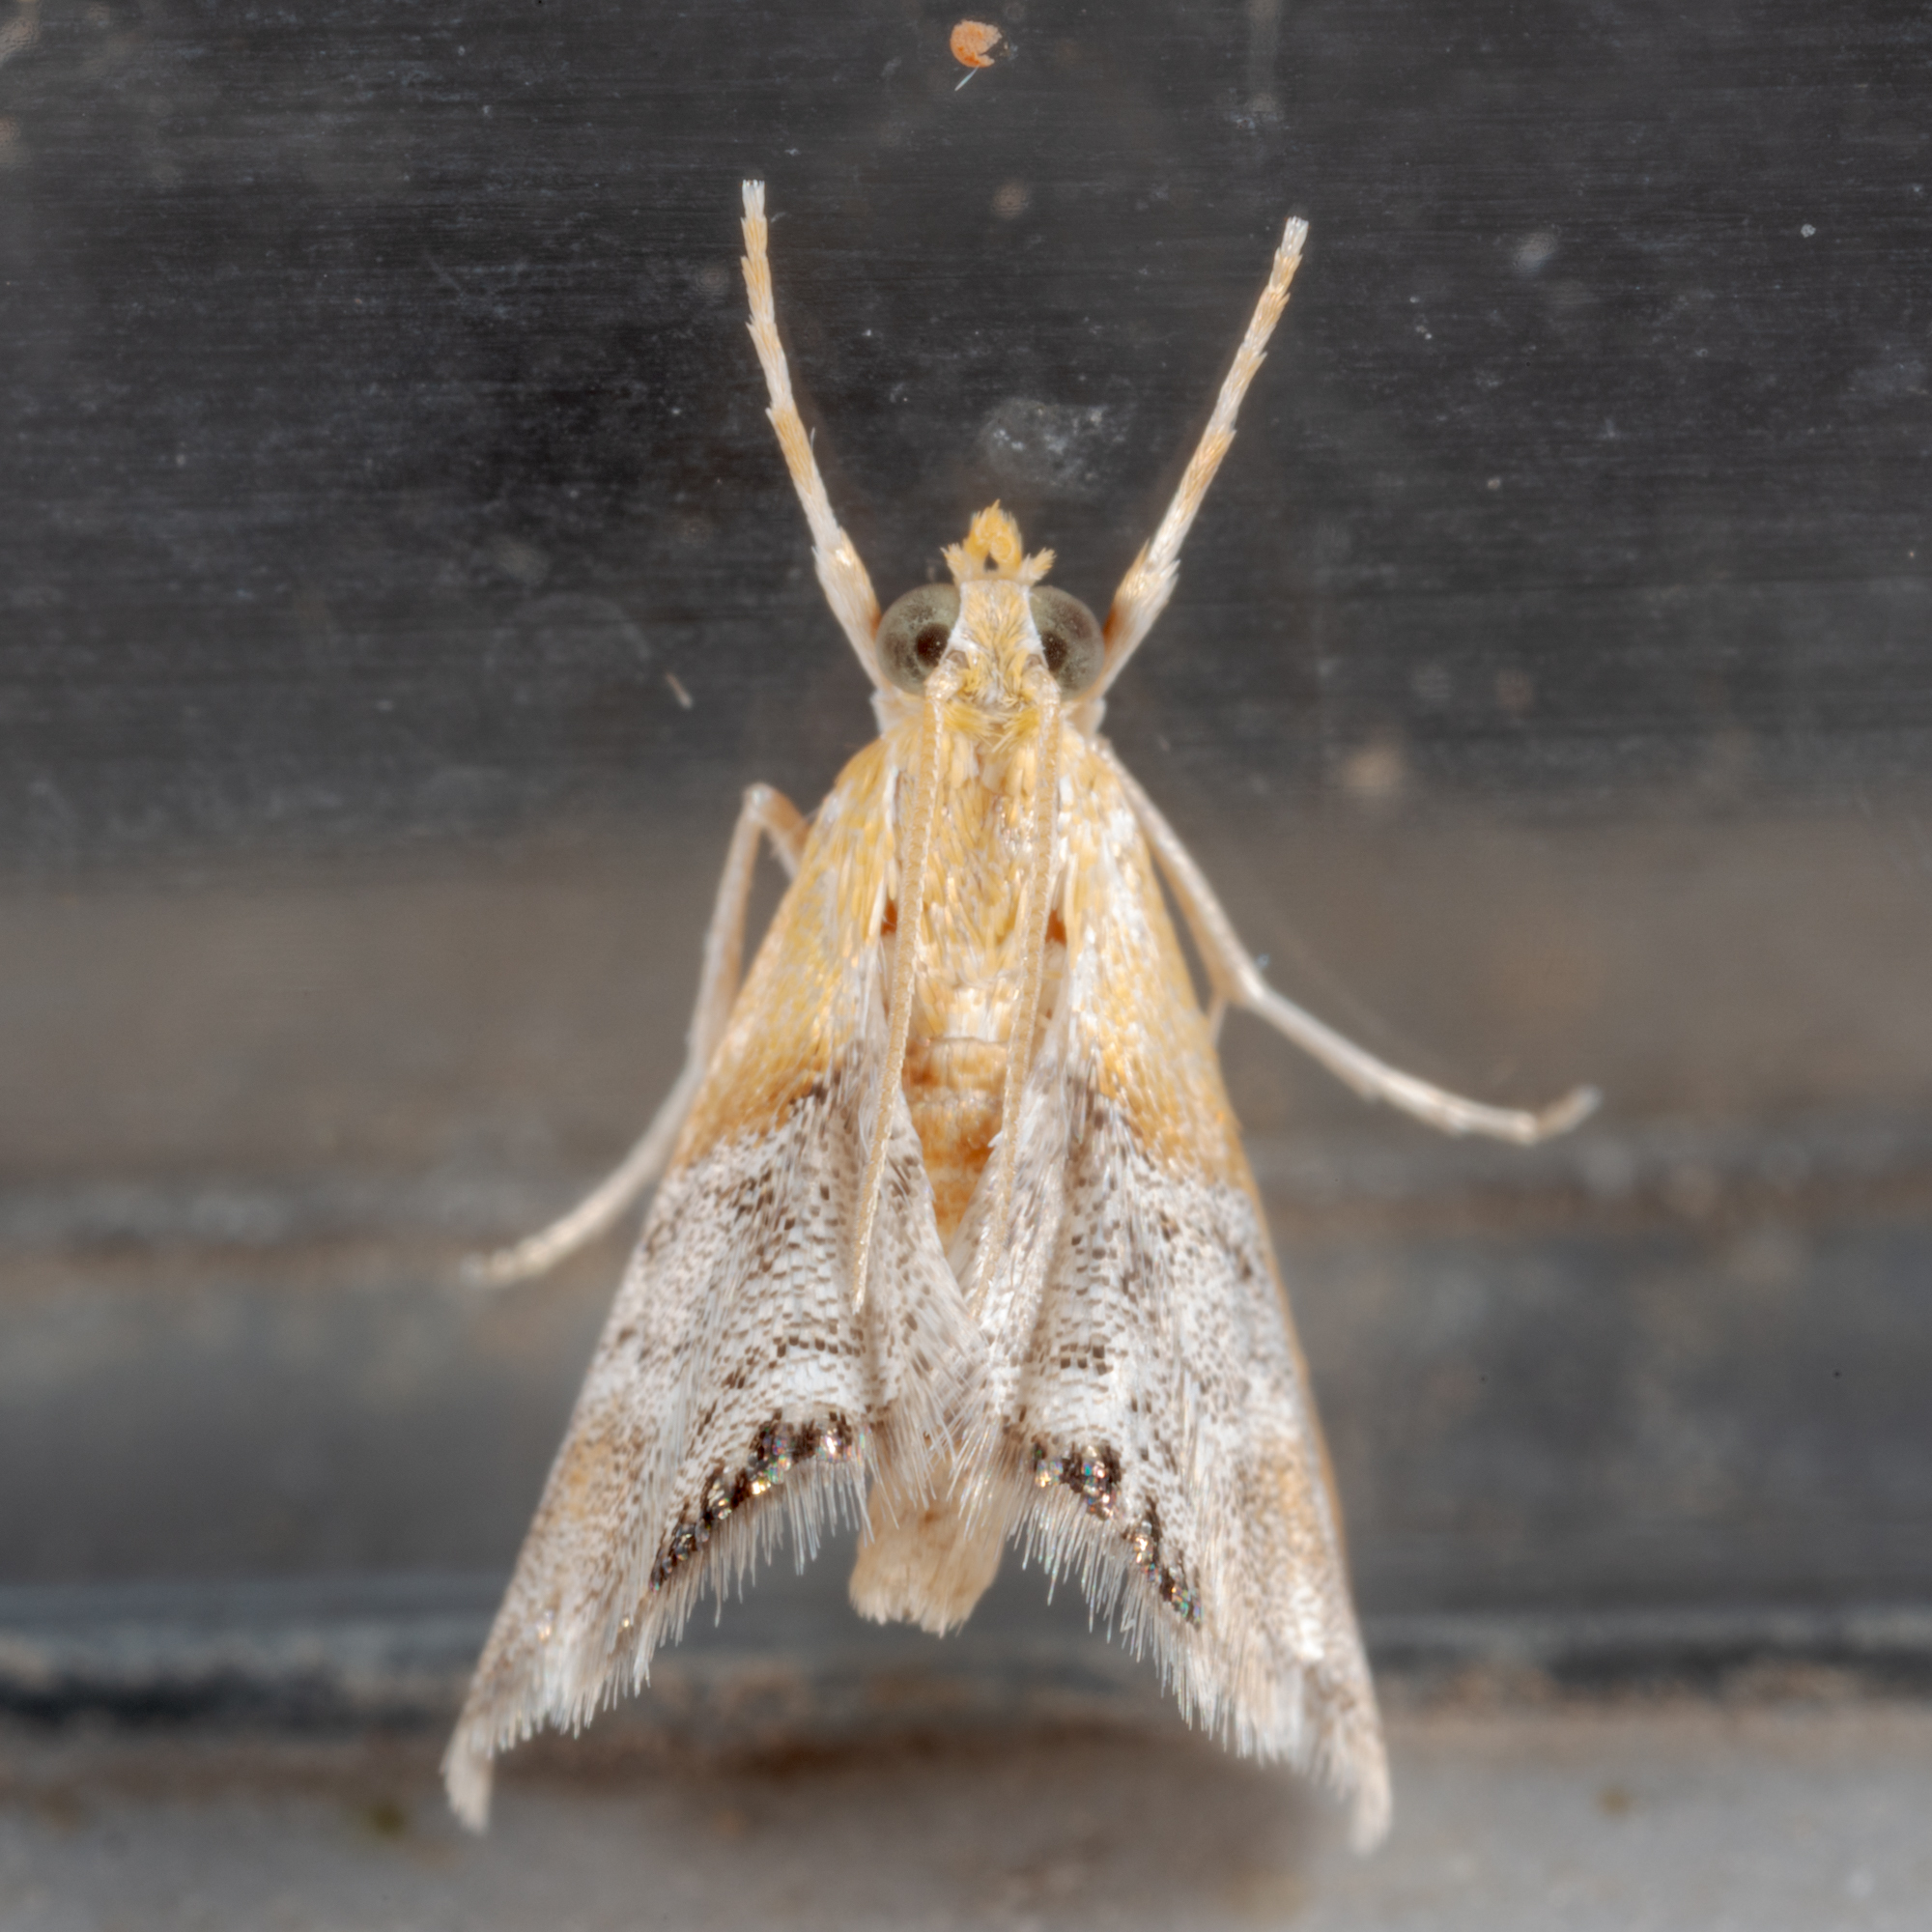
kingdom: Animalia
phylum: Arthropoda
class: Insecta
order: Lepidoptera
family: Crambidae
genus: Chalcoela
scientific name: Chalcoela iphitalis
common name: Sooty-winged chalcoela moth
